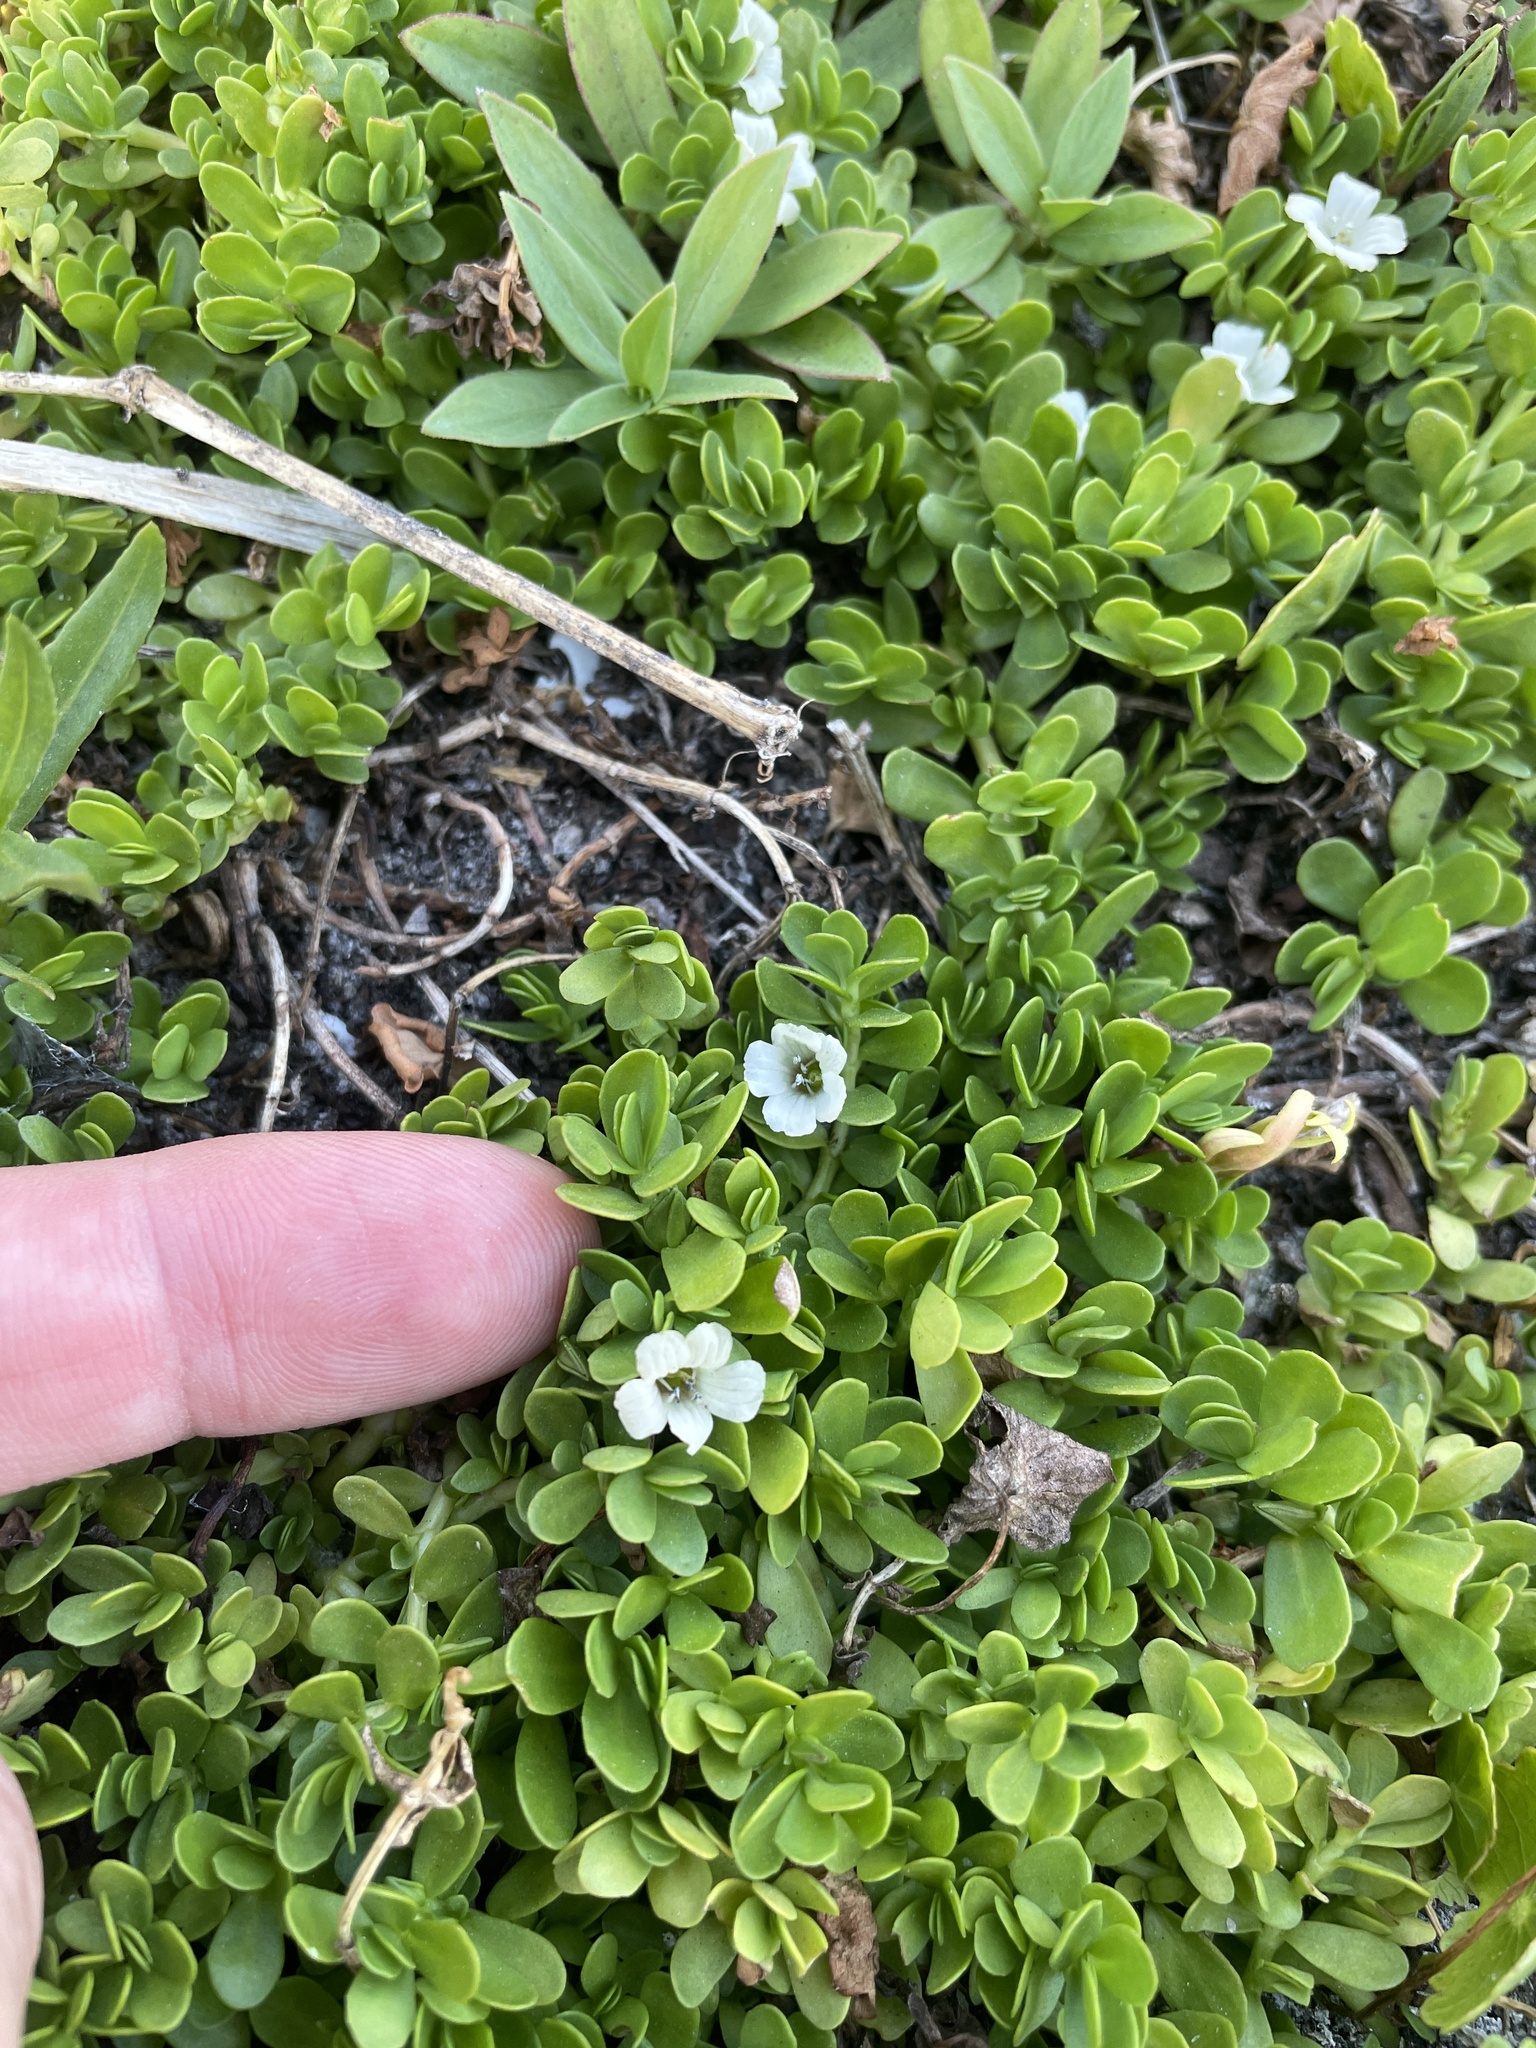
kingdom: Plantae
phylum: Tracheophyta
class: Magnoliopsida
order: Lamiales
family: Plantaginaceae
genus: Bacopa
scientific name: Bacopa monnieri
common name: Indian-pennywort
